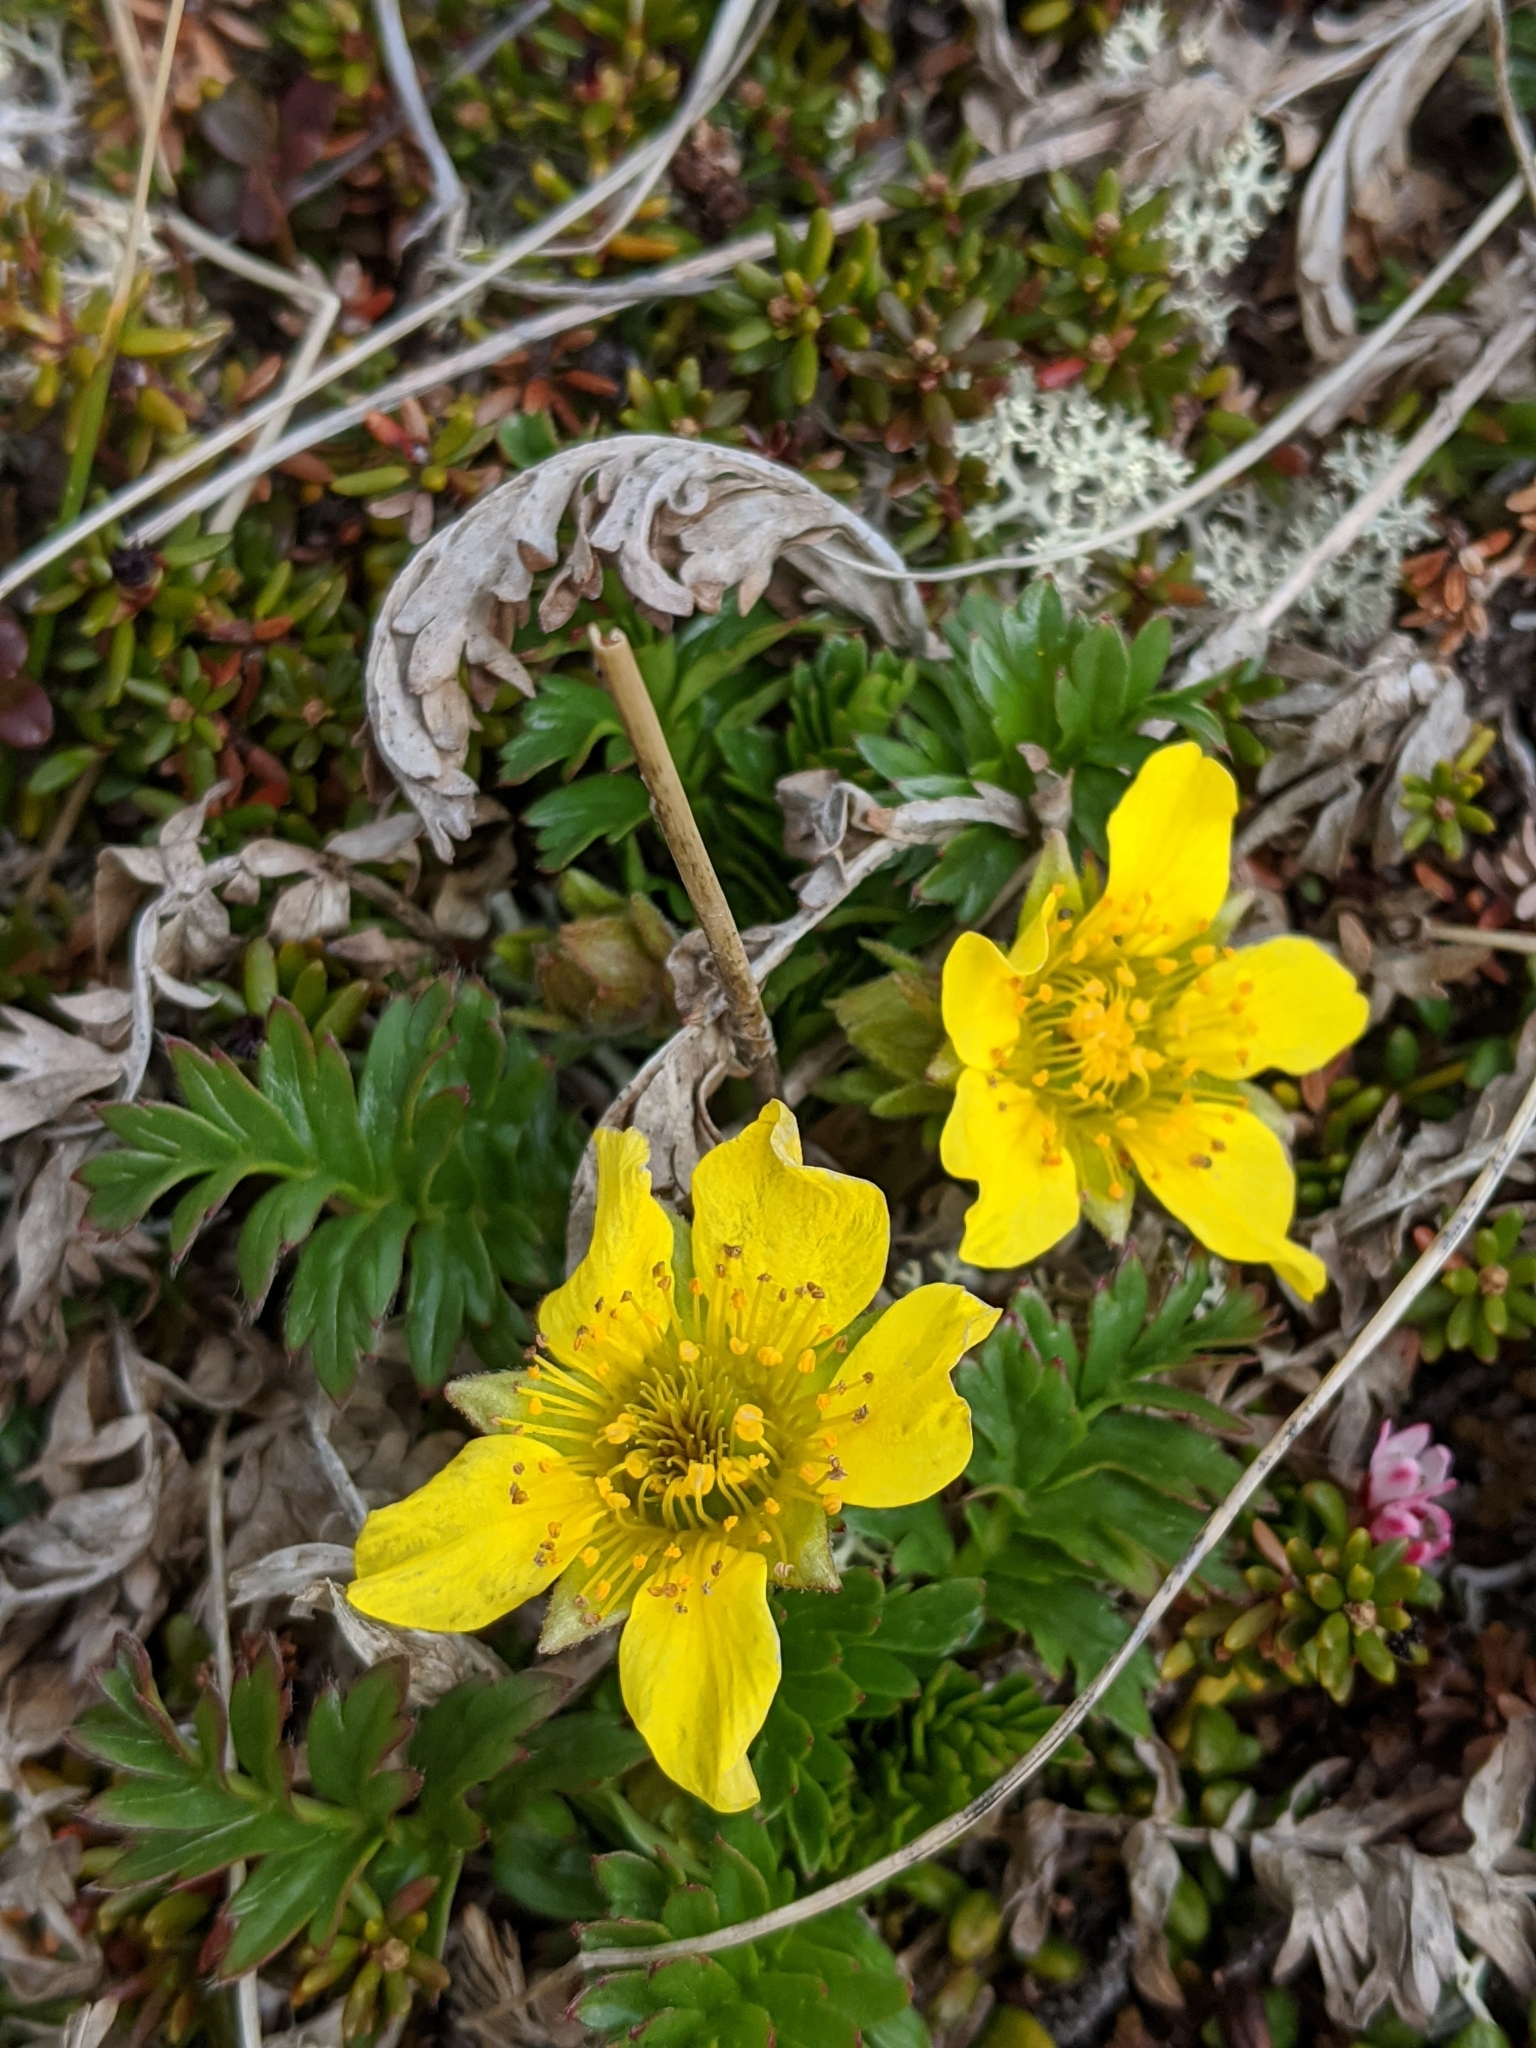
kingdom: Plantae
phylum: Tracheophyta
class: Magnoliopsida
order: Rosales
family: Rosaceae
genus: Geum
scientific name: Geum rossii
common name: Alpine avens
